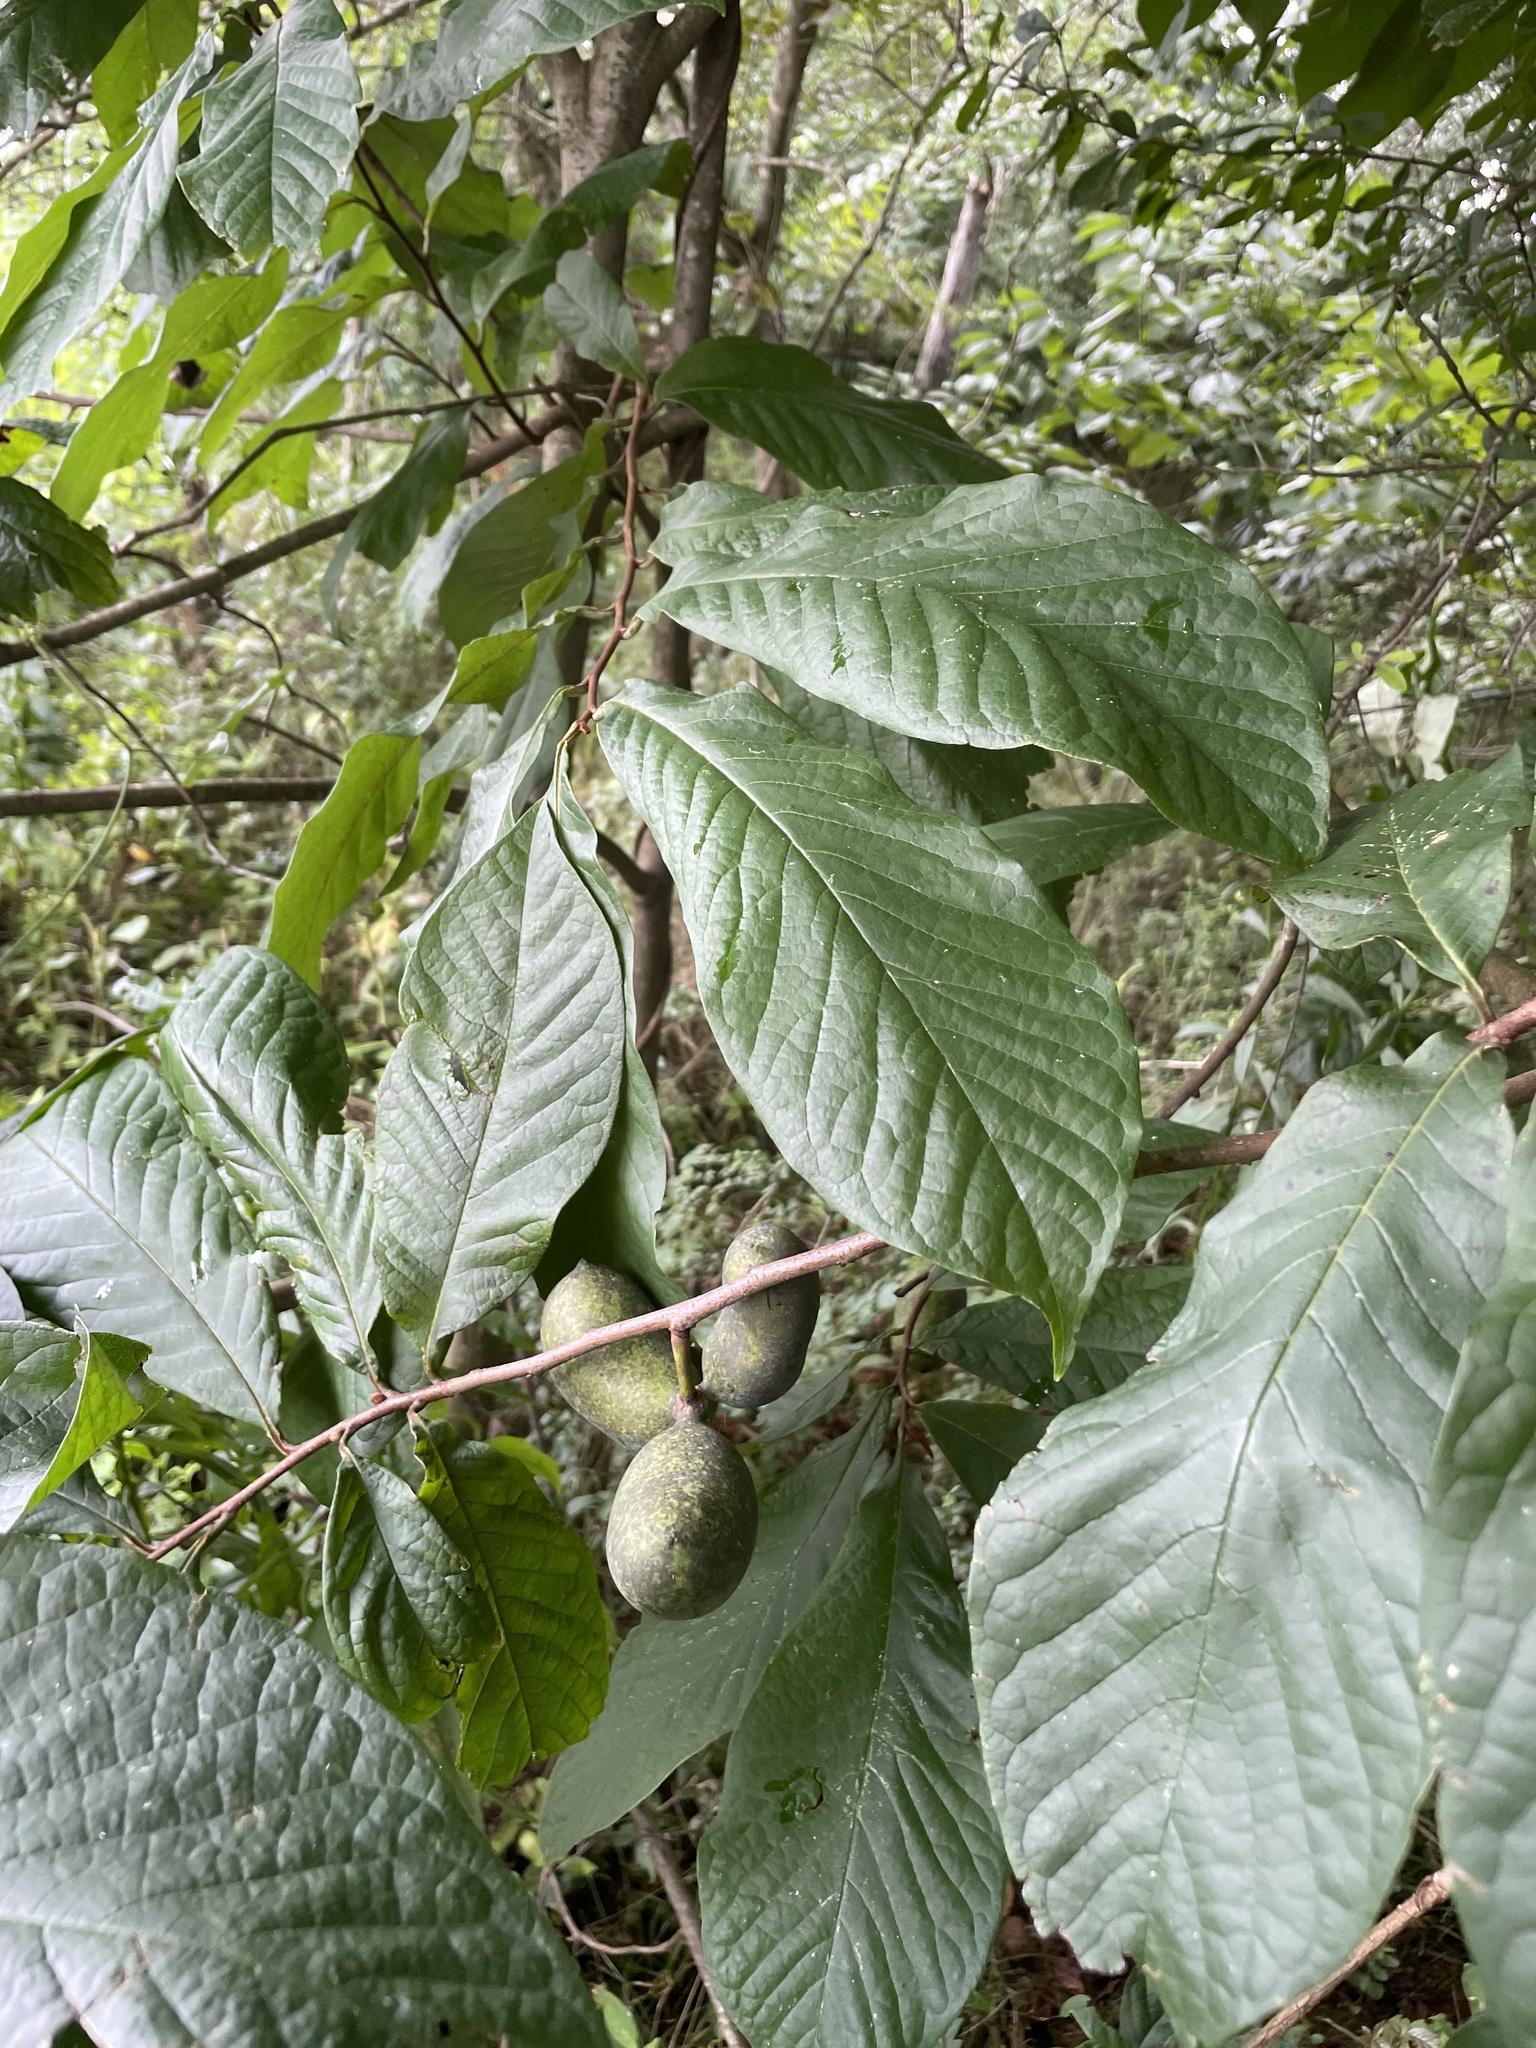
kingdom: Plantae
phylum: Tracheophyta
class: Magnoliopsida
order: Magnoliales
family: Annonaceae
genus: Asimina
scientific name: Asimina triloba
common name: Dog-banana
